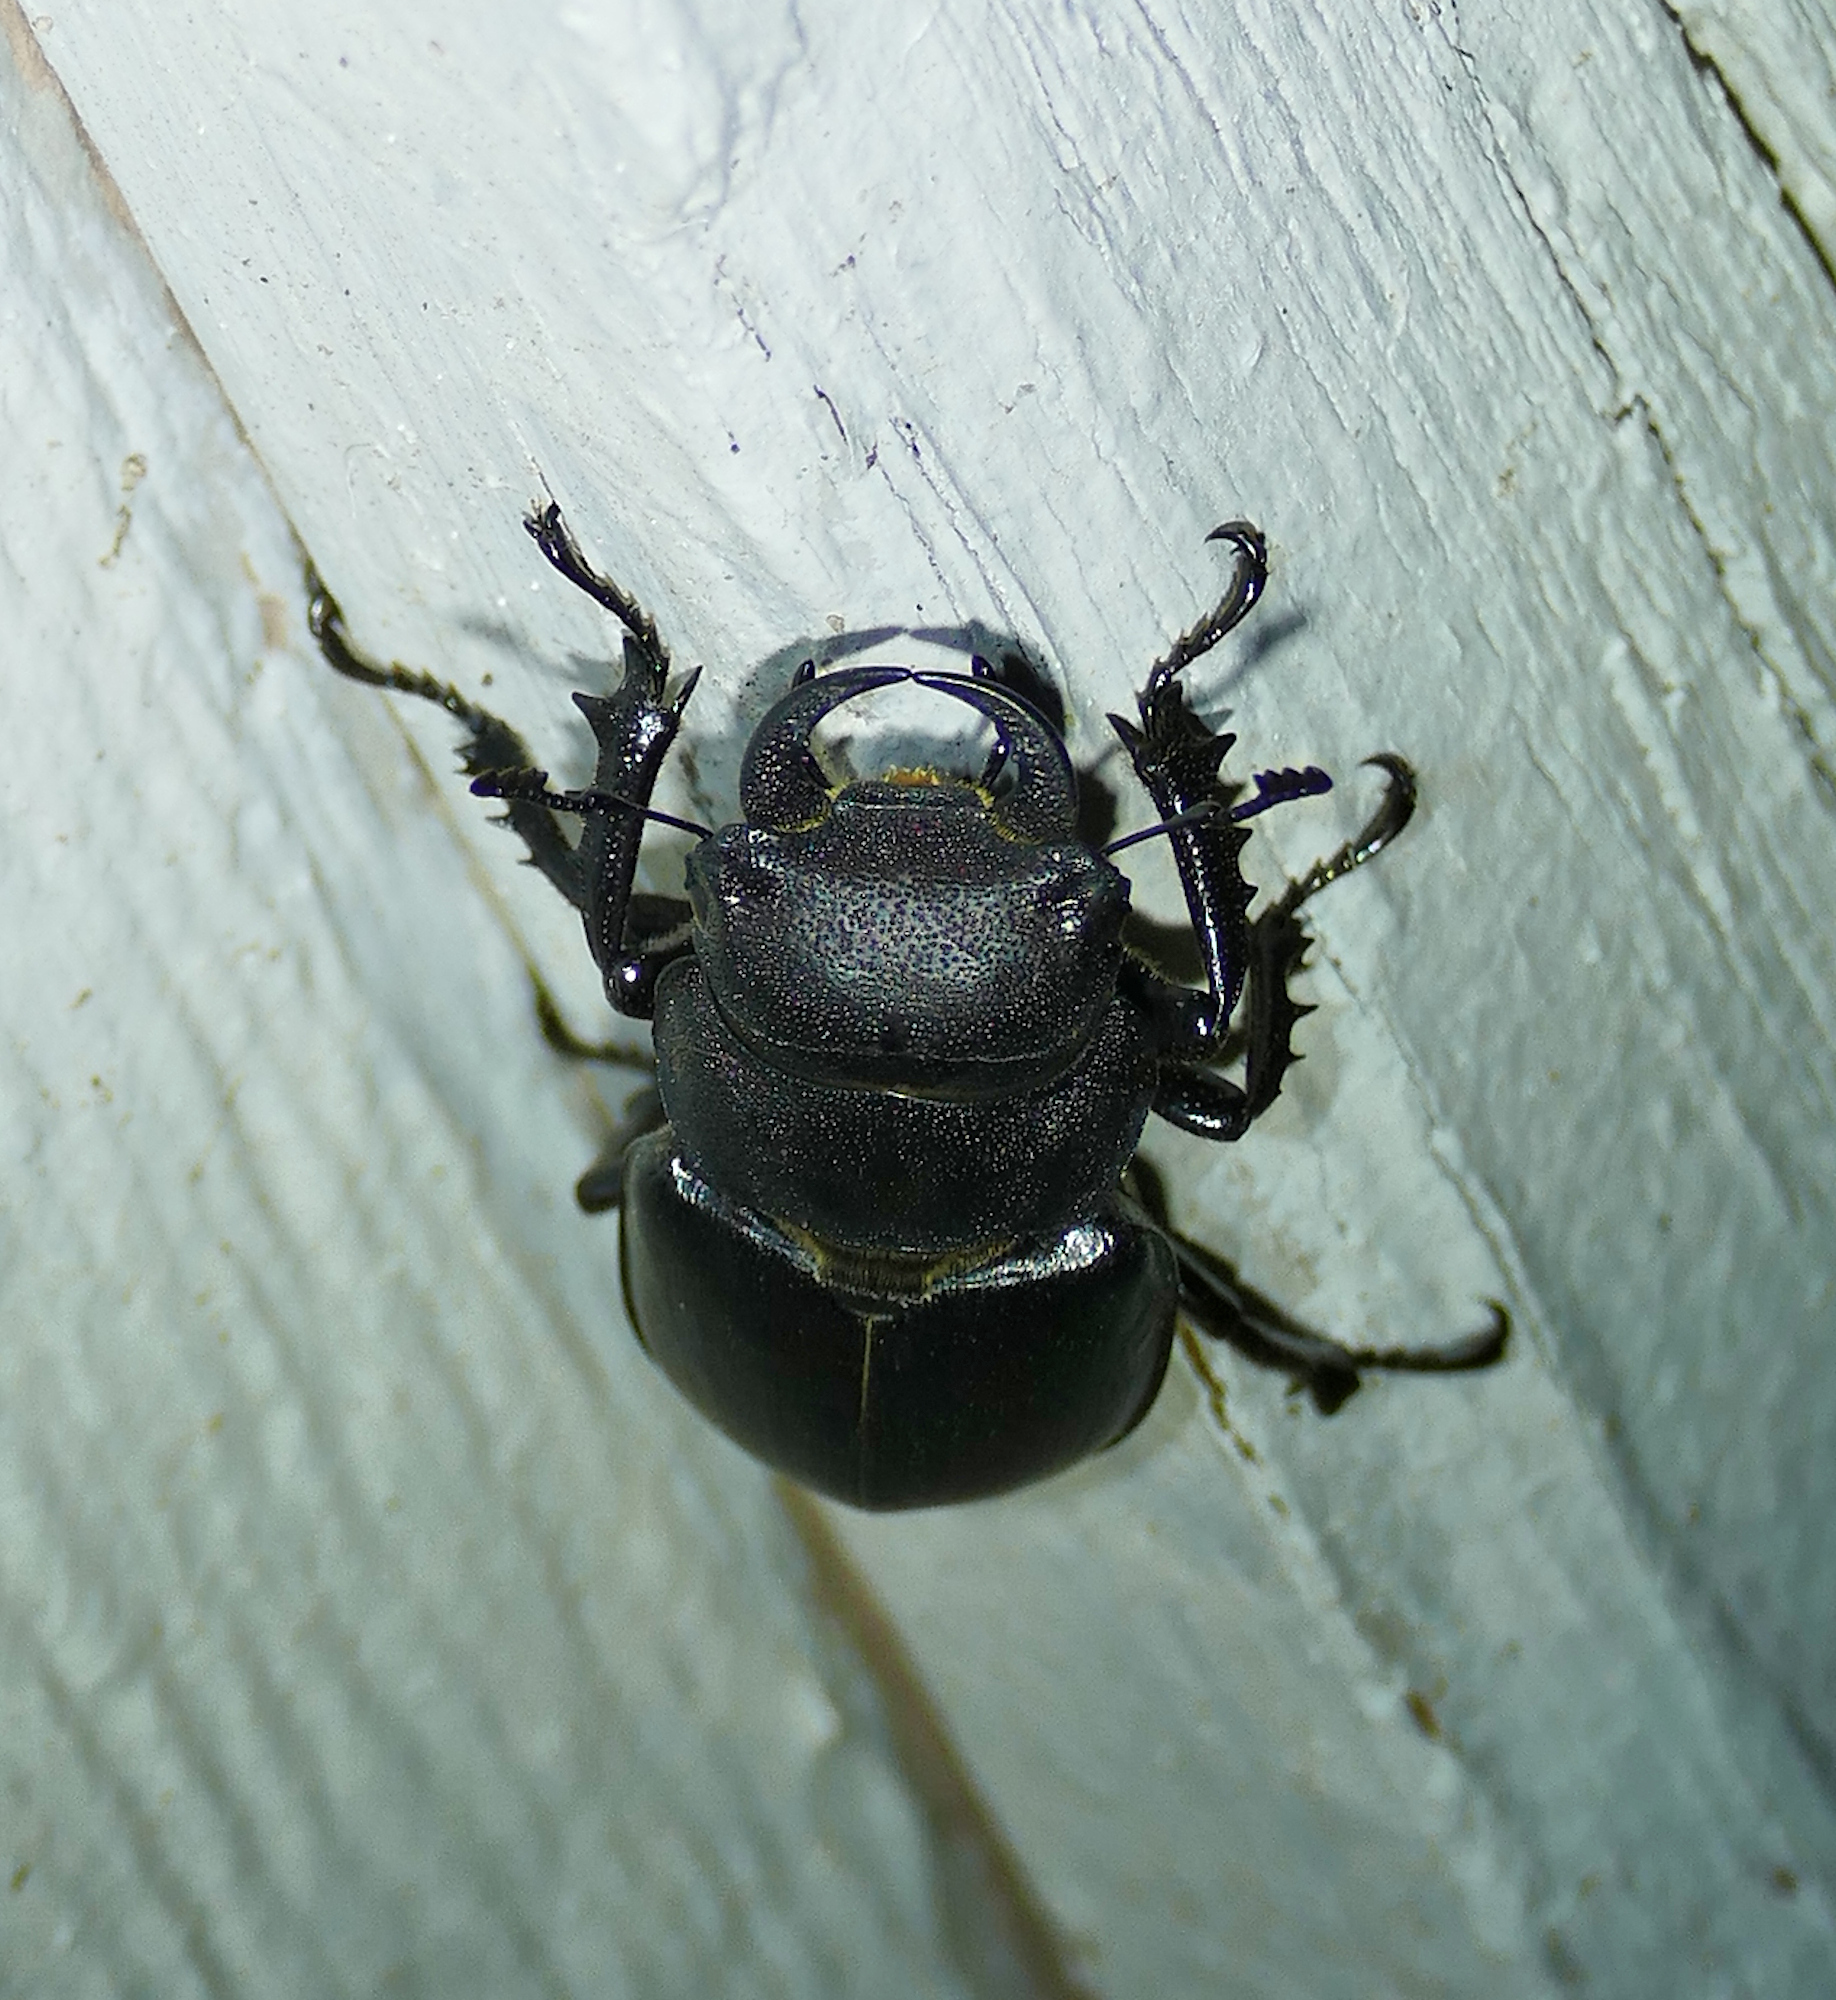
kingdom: Animalia
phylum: Arthropoda
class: Insecta
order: Coleoptera
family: Lucanidae
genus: Lucanus
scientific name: Lucanus mazama
